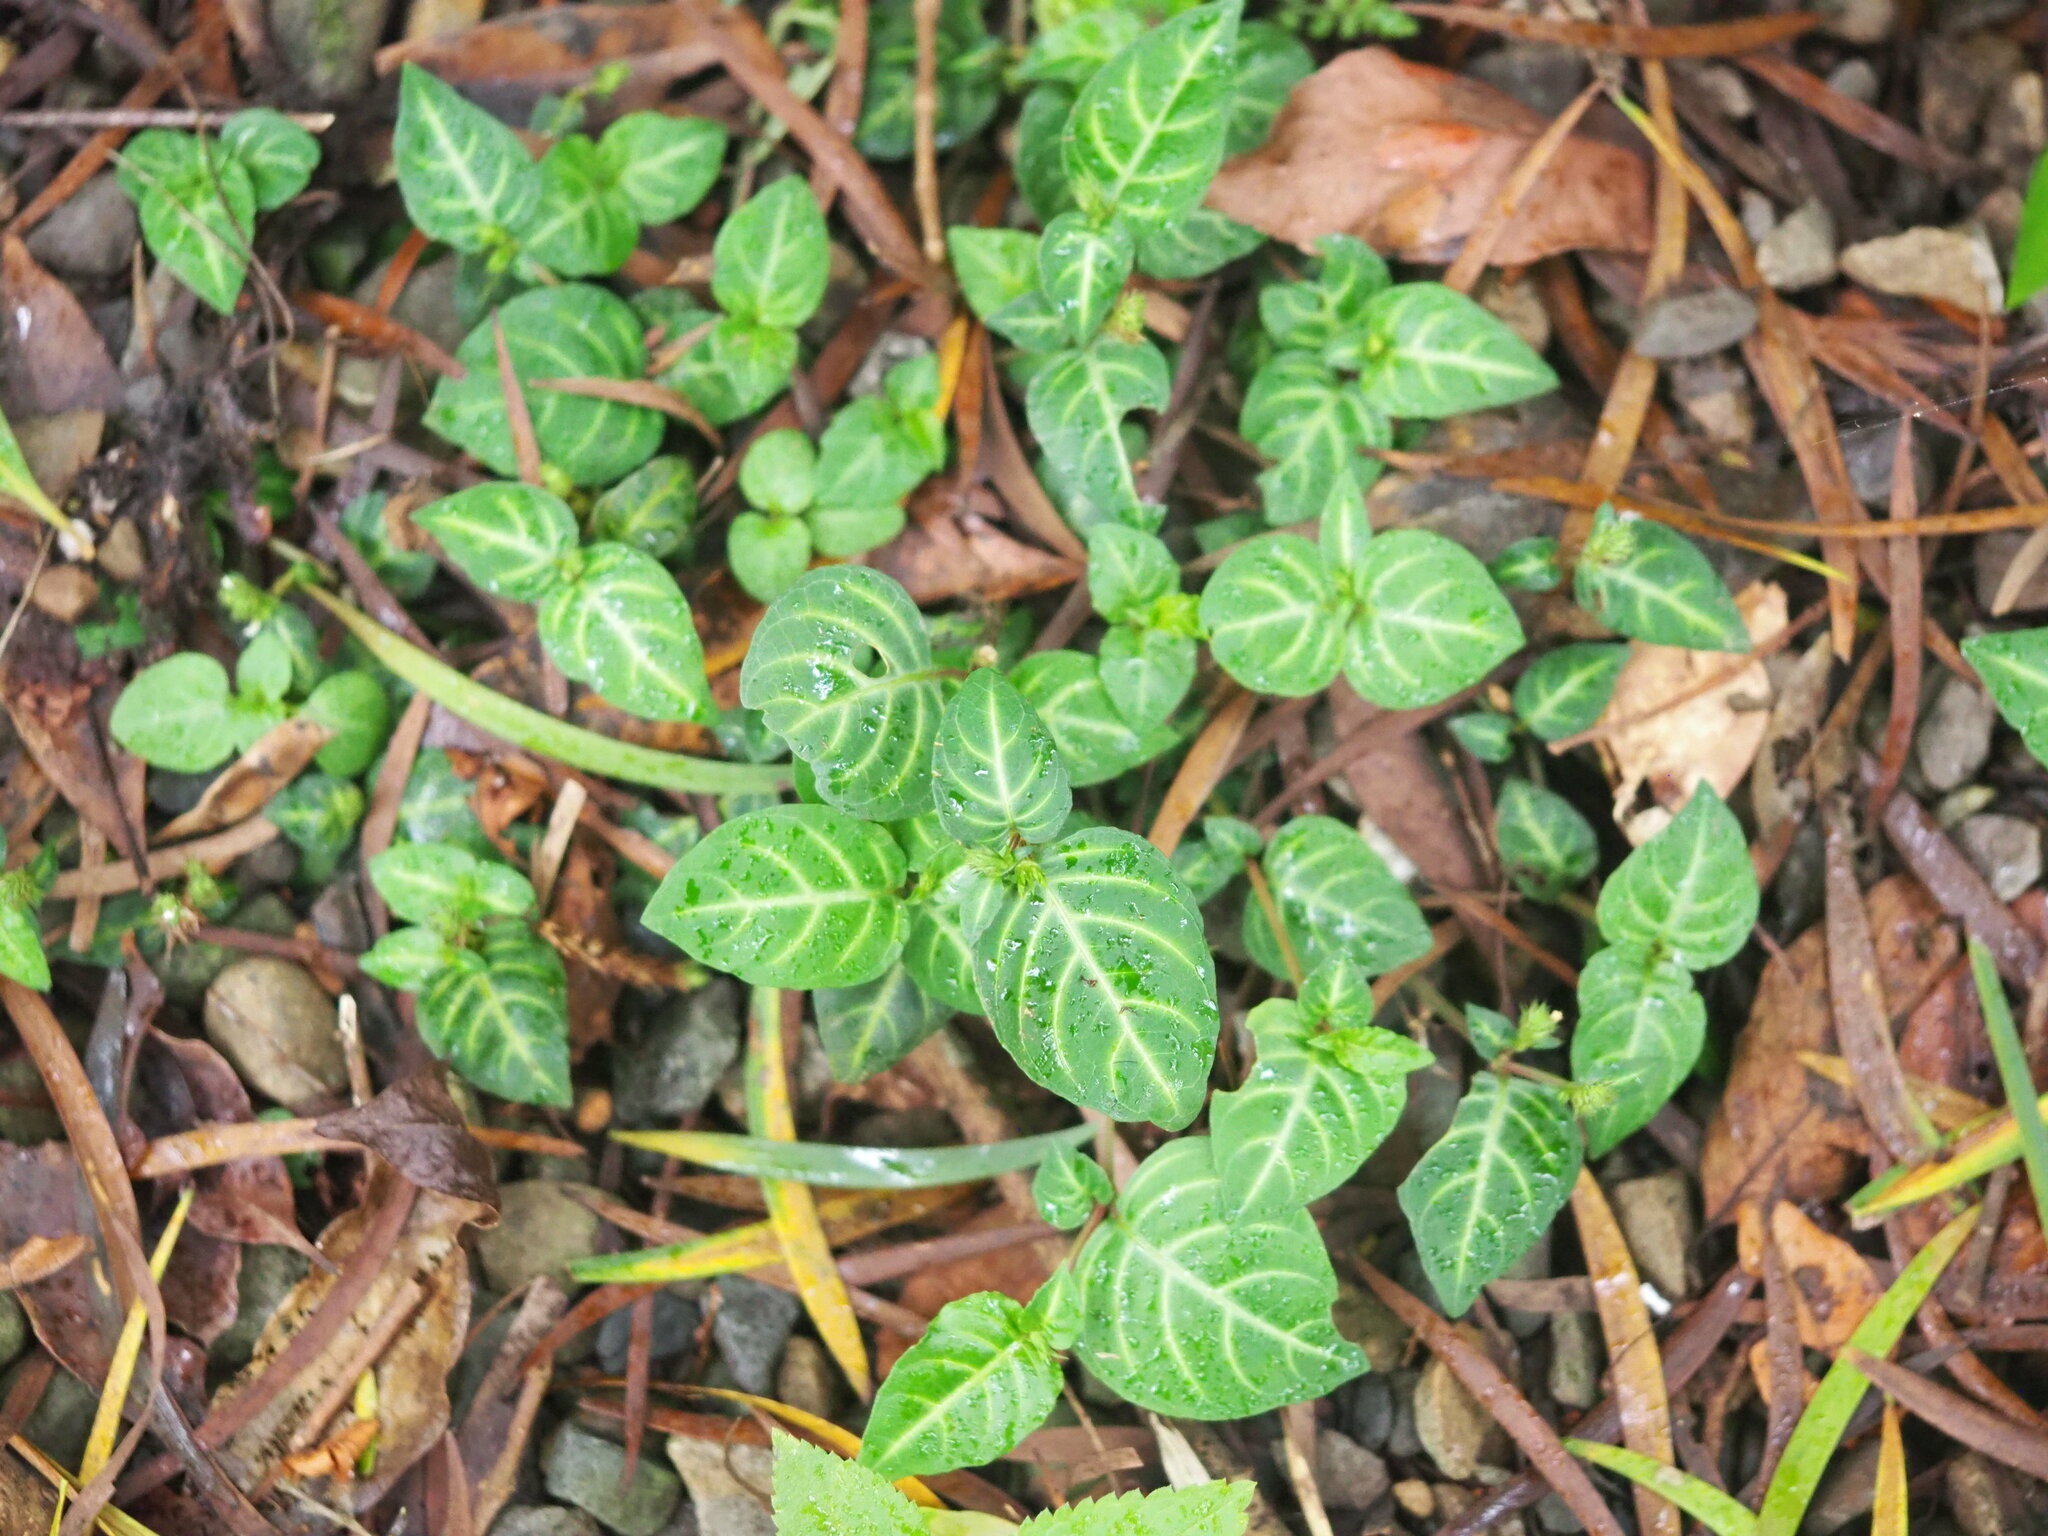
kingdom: Plantae
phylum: Tracheophyta
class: Magnoliopsida
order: Lamiales
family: Acanthaceae
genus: Lepidagathis
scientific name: Lepidagathis inaequalis
